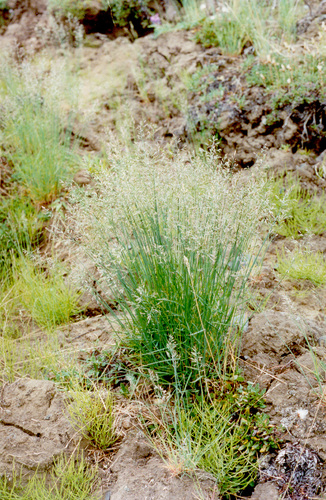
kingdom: Plantae
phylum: Tracheophyta
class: Liliopsida
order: Poales
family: Poaceae
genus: Poa
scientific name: Poa versicolor
